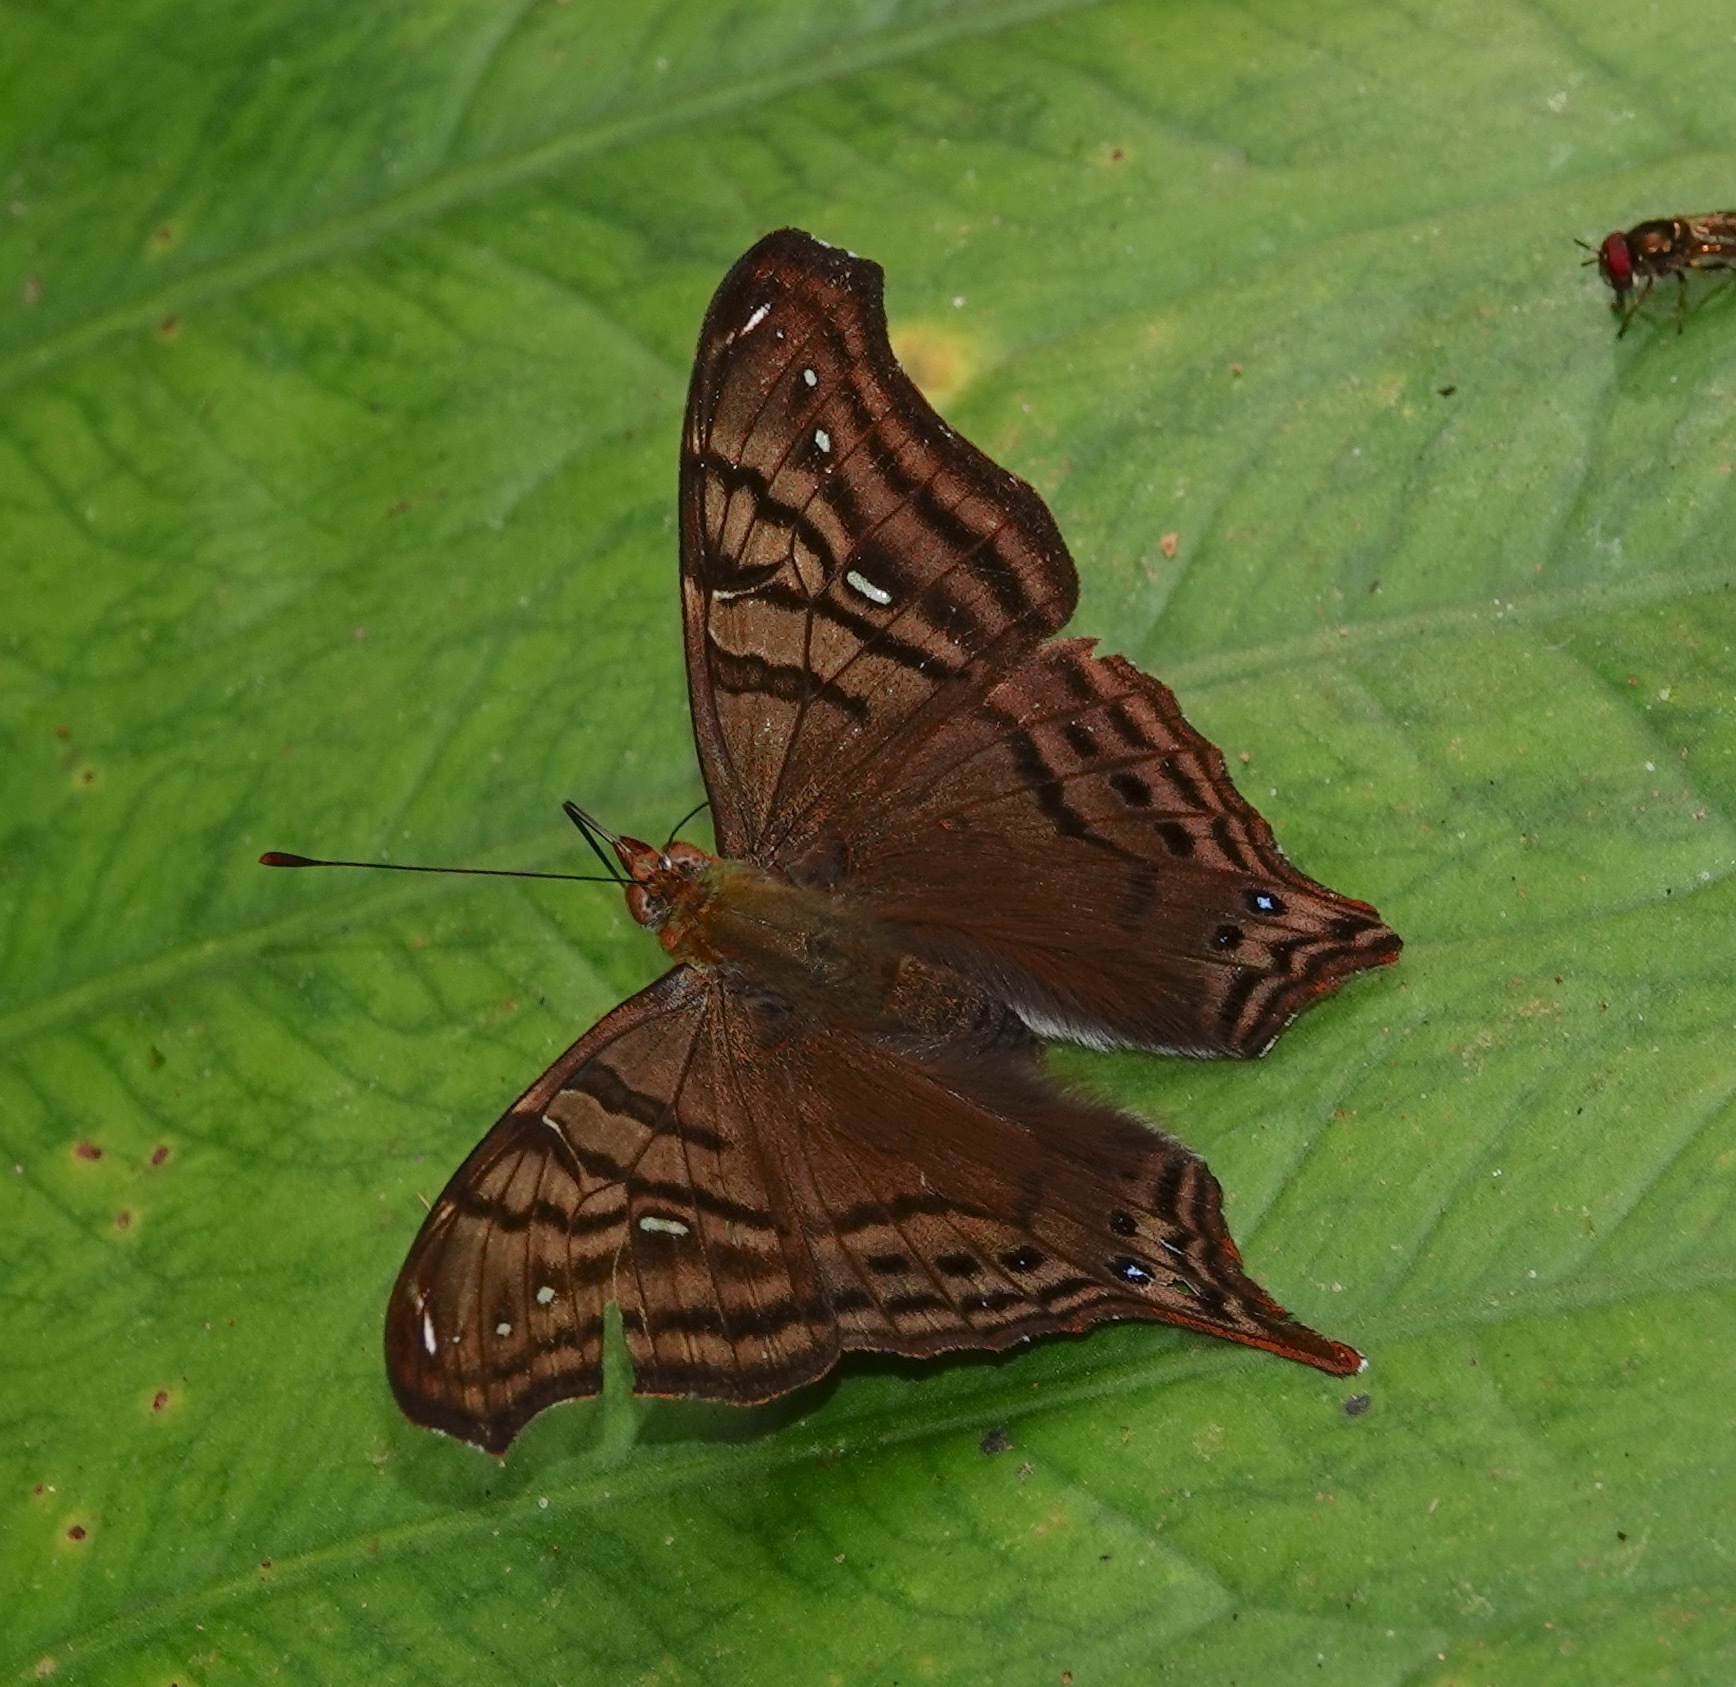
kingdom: Animalia
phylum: Arthropoda
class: Insecta
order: Lepidoptera
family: Nymphalidae
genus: Hypanartia
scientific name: Hypanartia dione
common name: Banded mapwing
